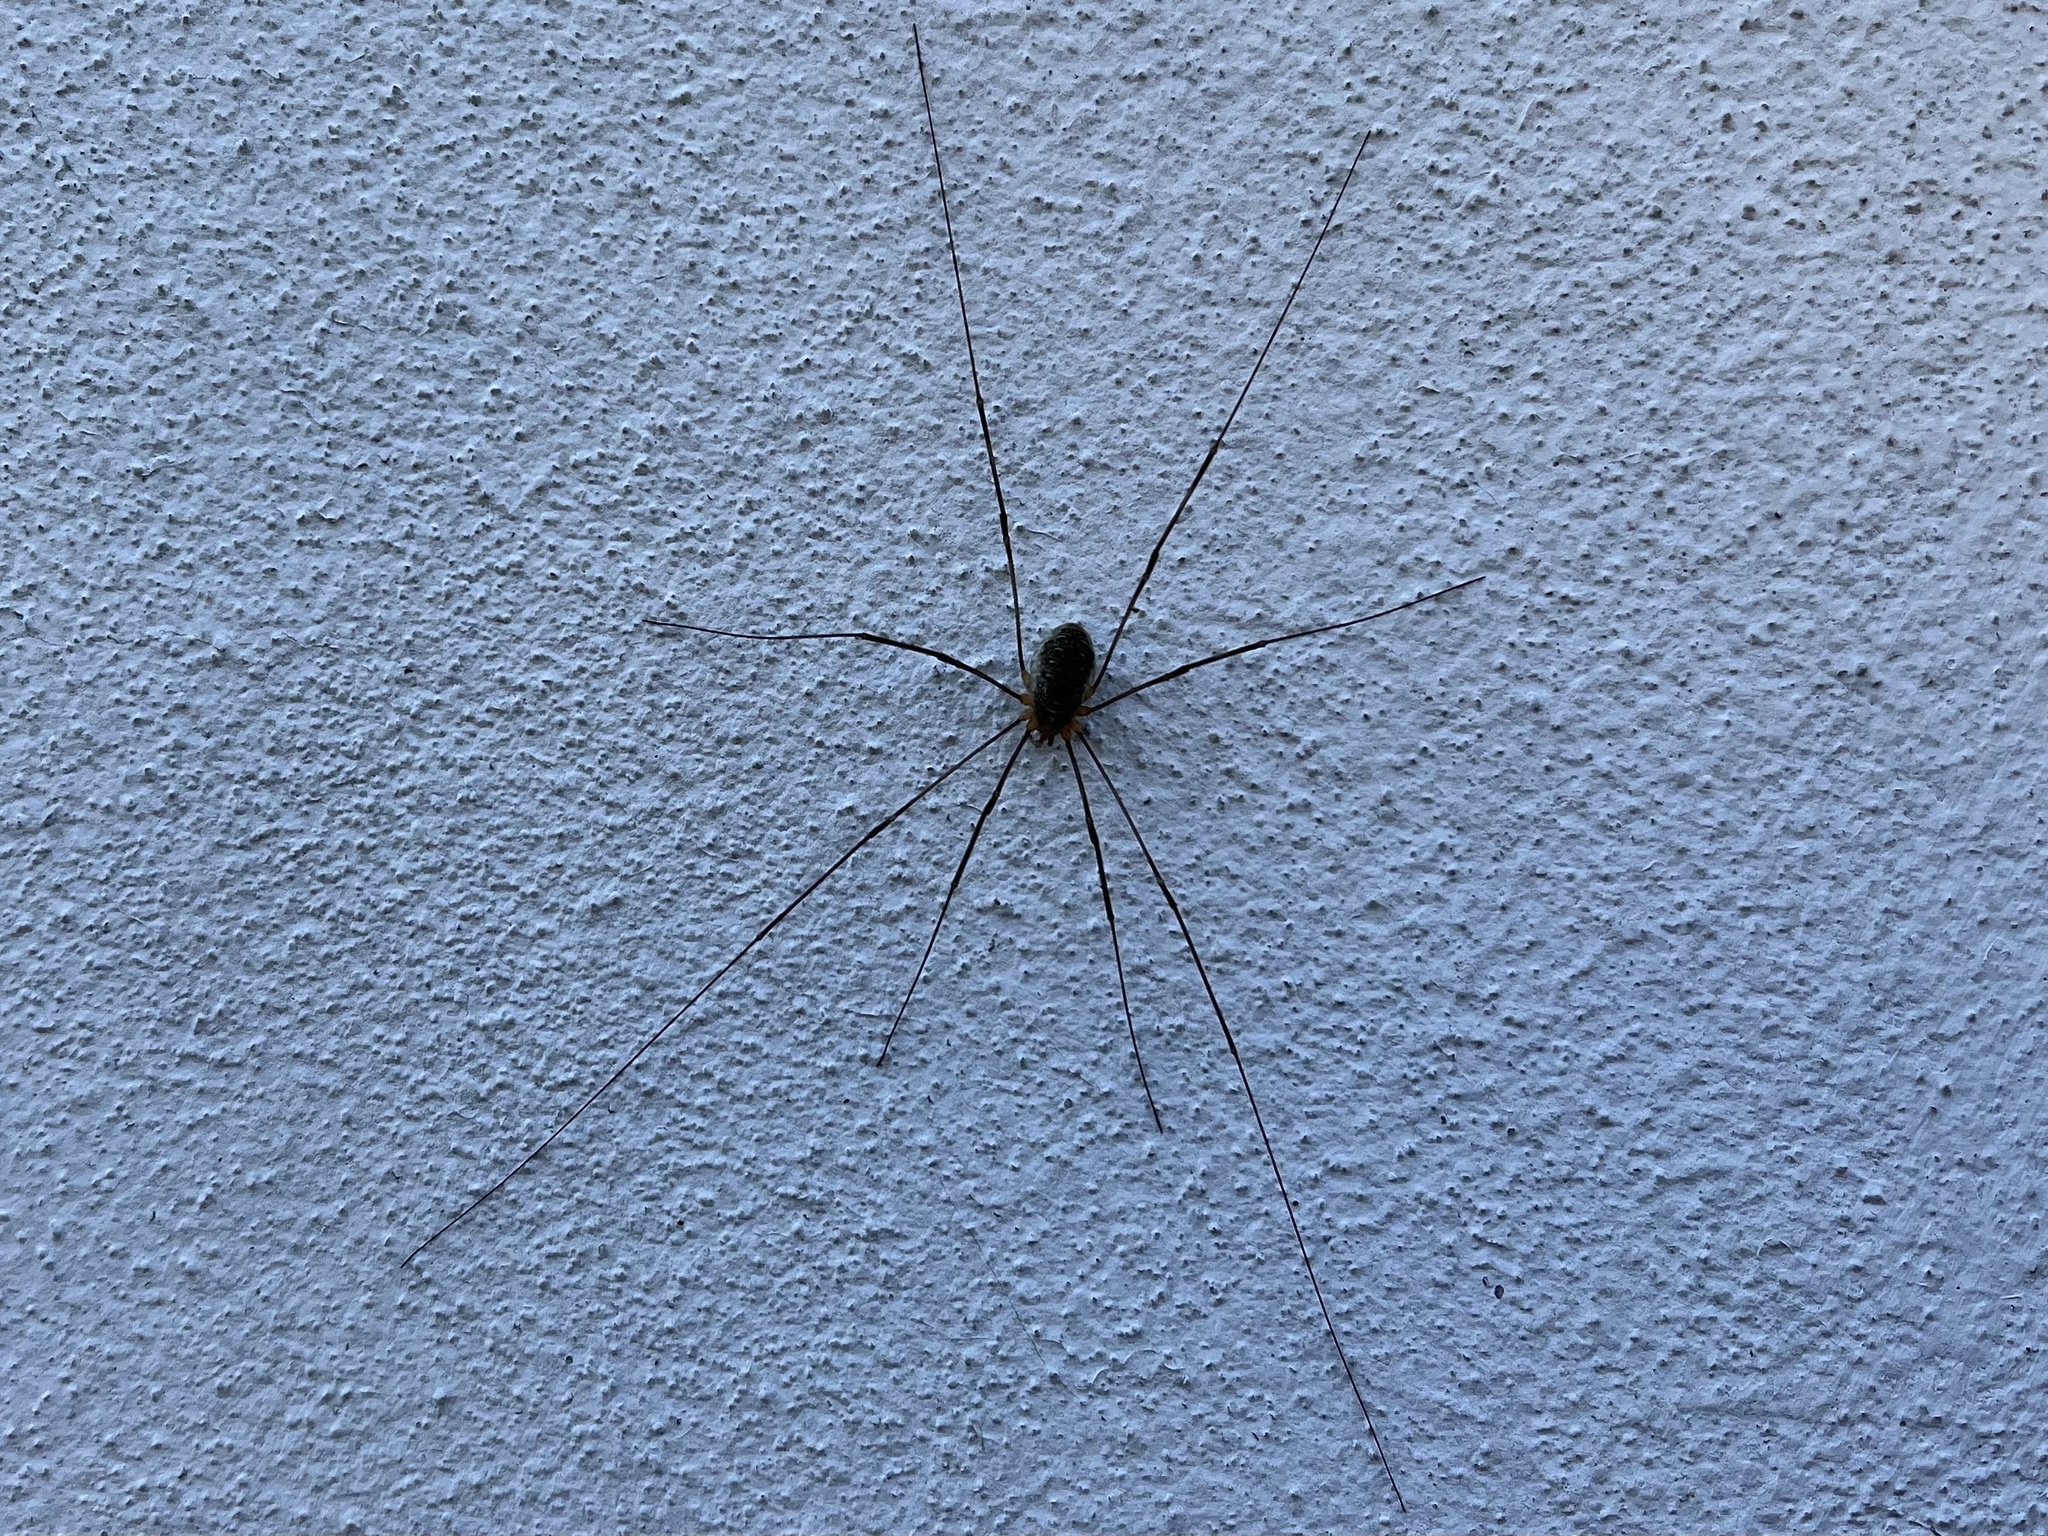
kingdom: Animalia
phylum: Arthropoda
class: Arachnida
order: Opiliones
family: Phalangiidae
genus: Opilio
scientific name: Opilio canestrinii
